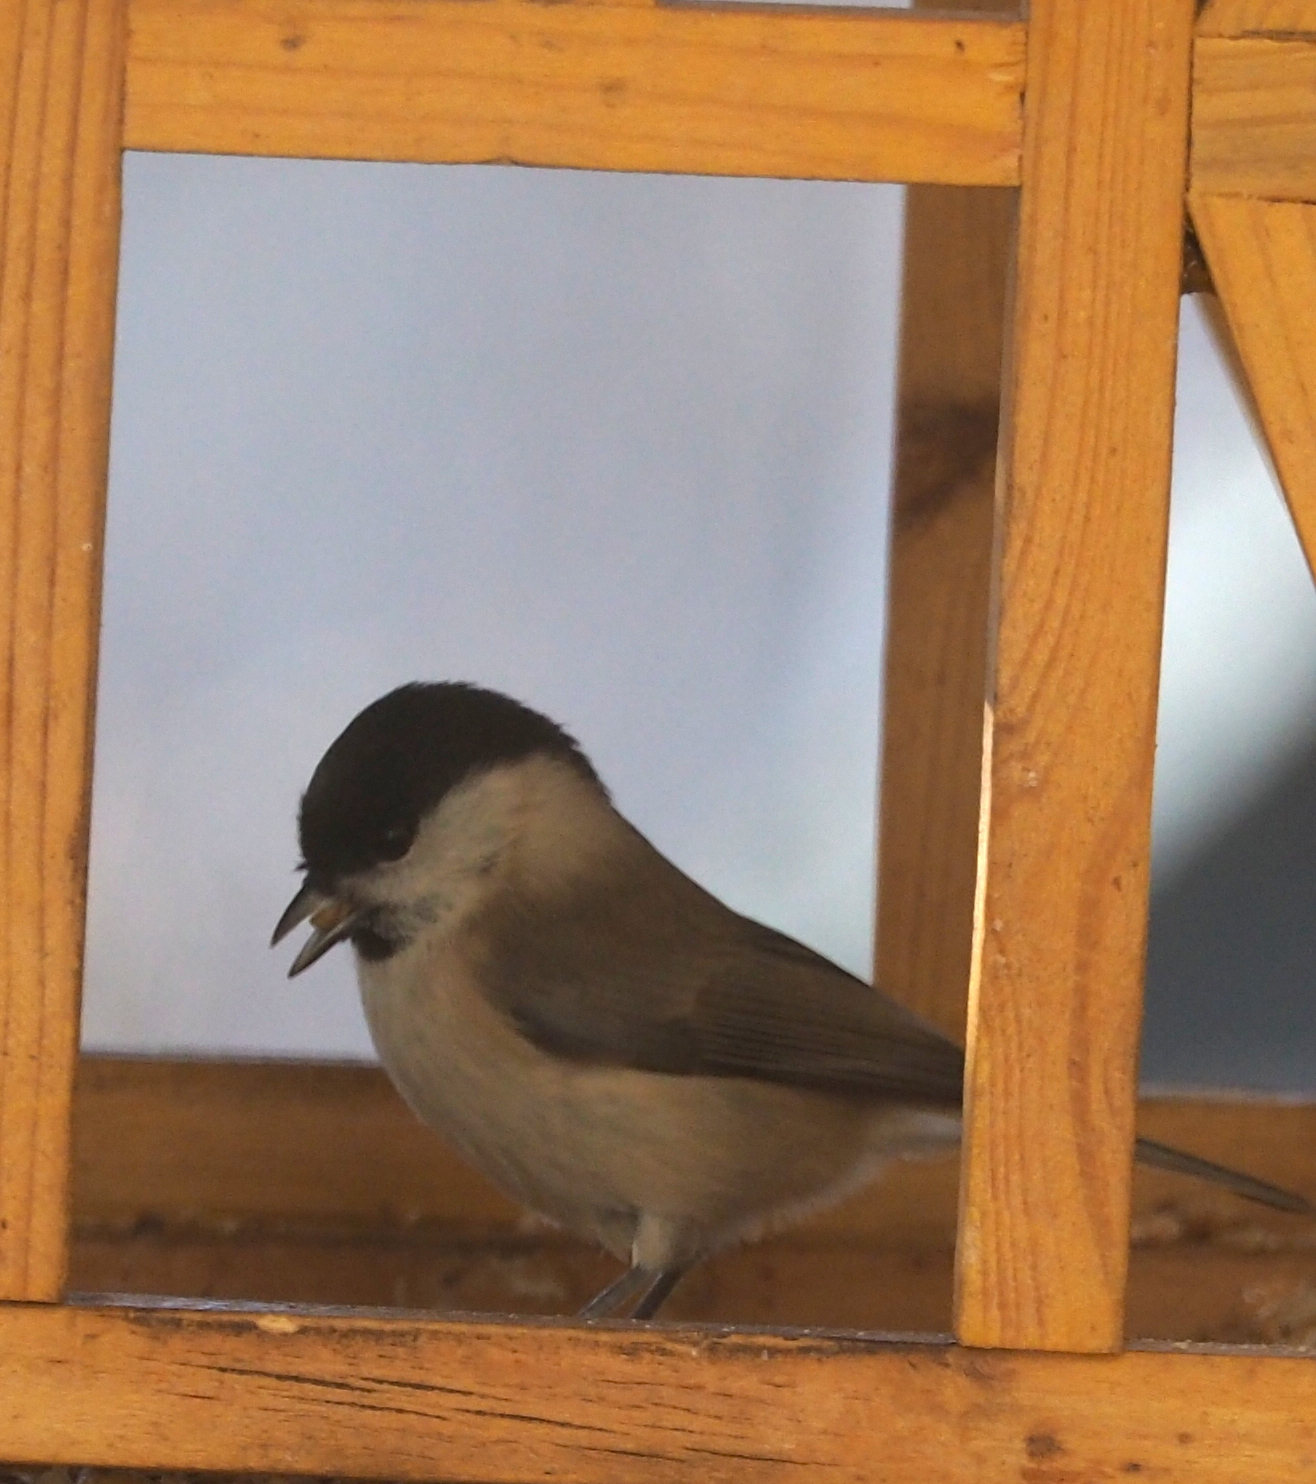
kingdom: Animalia
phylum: Chordata
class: Aves
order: Passeriformes
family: Paridae
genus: Poecile
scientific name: Poecile palustris
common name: Marsh tit
